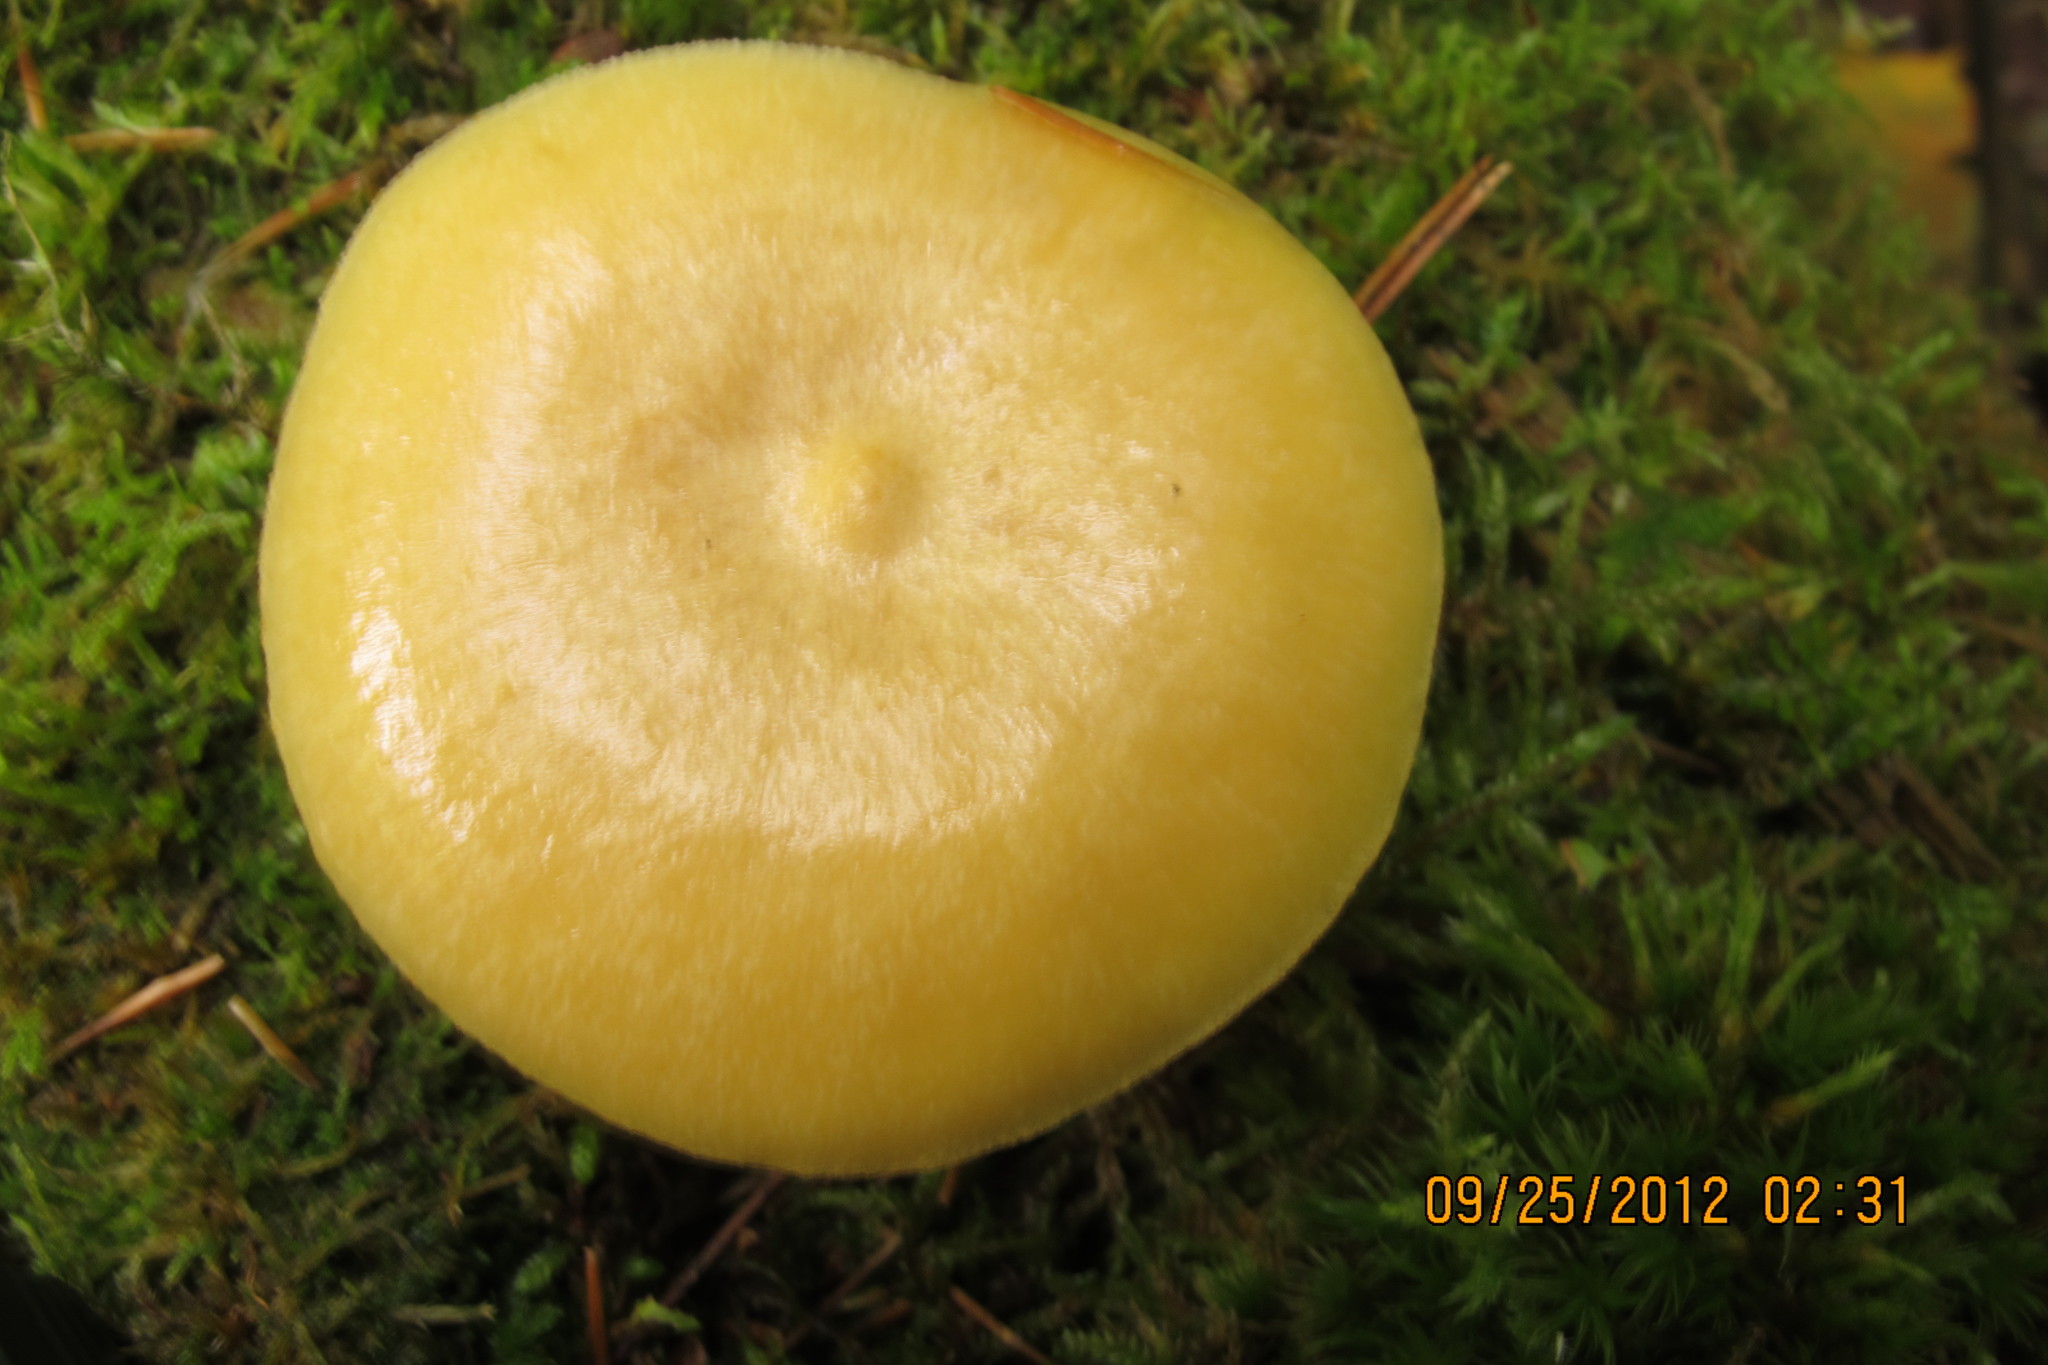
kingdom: Fungi
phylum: Basidiomycota
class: Agaricomycetes
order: Agaricales
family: Tricholomataceae
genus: Tricholomopsis
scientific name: Tricholomopsis sulfureoides
